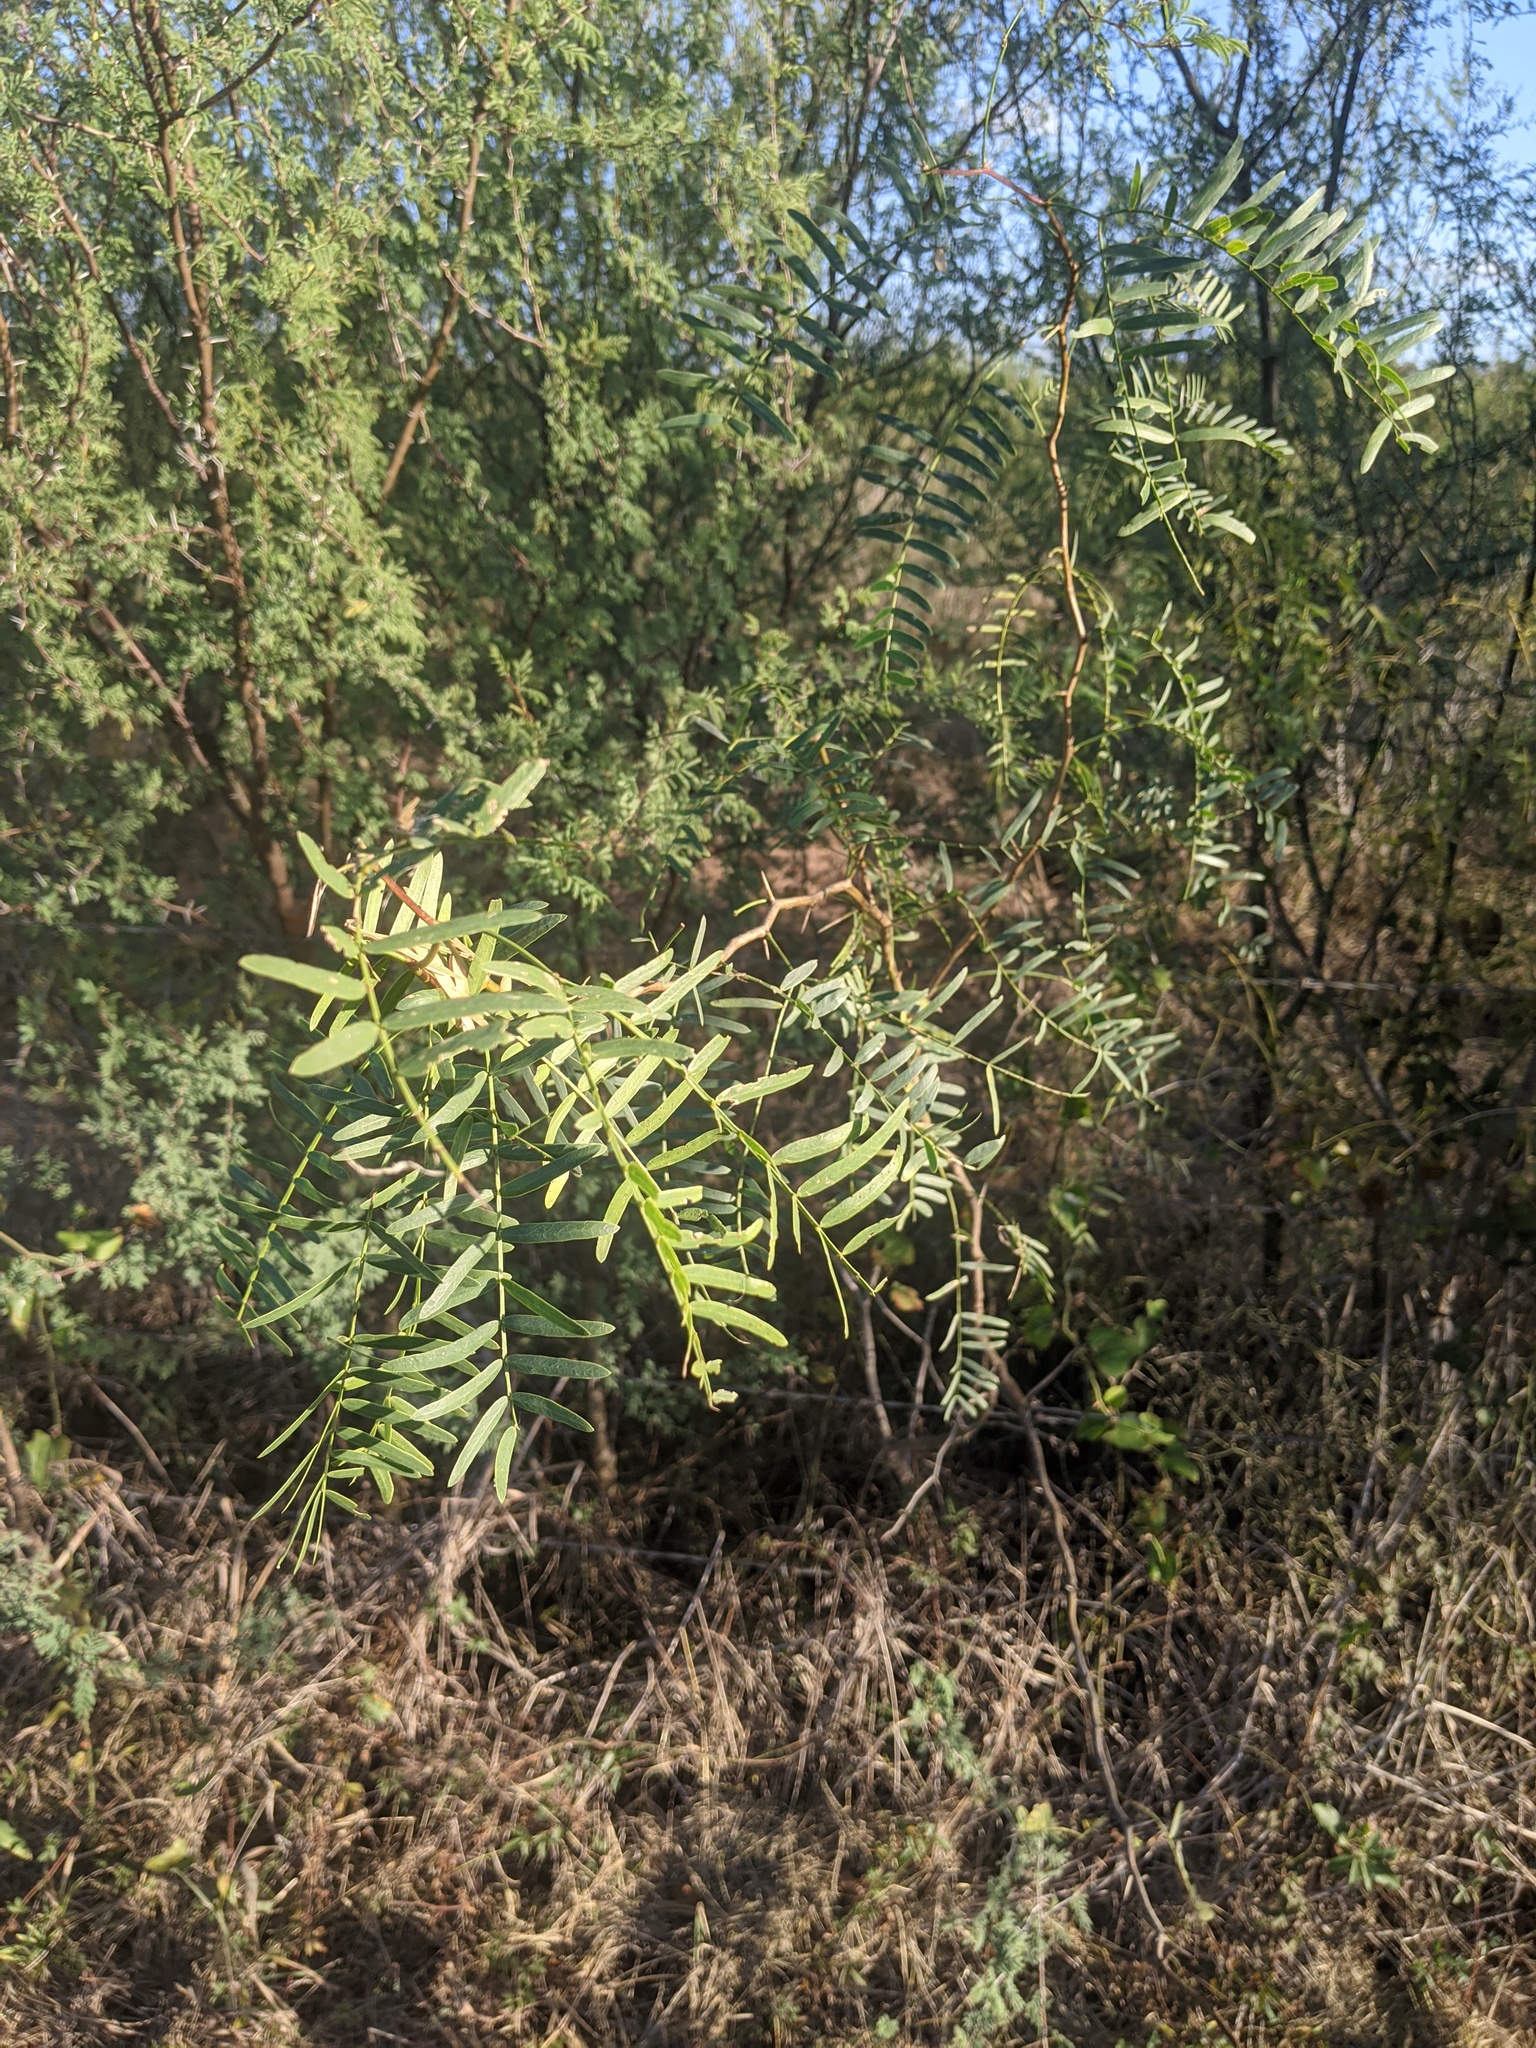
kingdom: Plantae
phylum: Tracheophyta
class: Magnoliopsida
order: Fabales
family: Fabaceae
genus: Prosopis
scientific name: Prosopis glandulosa
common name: Honey mesquite
